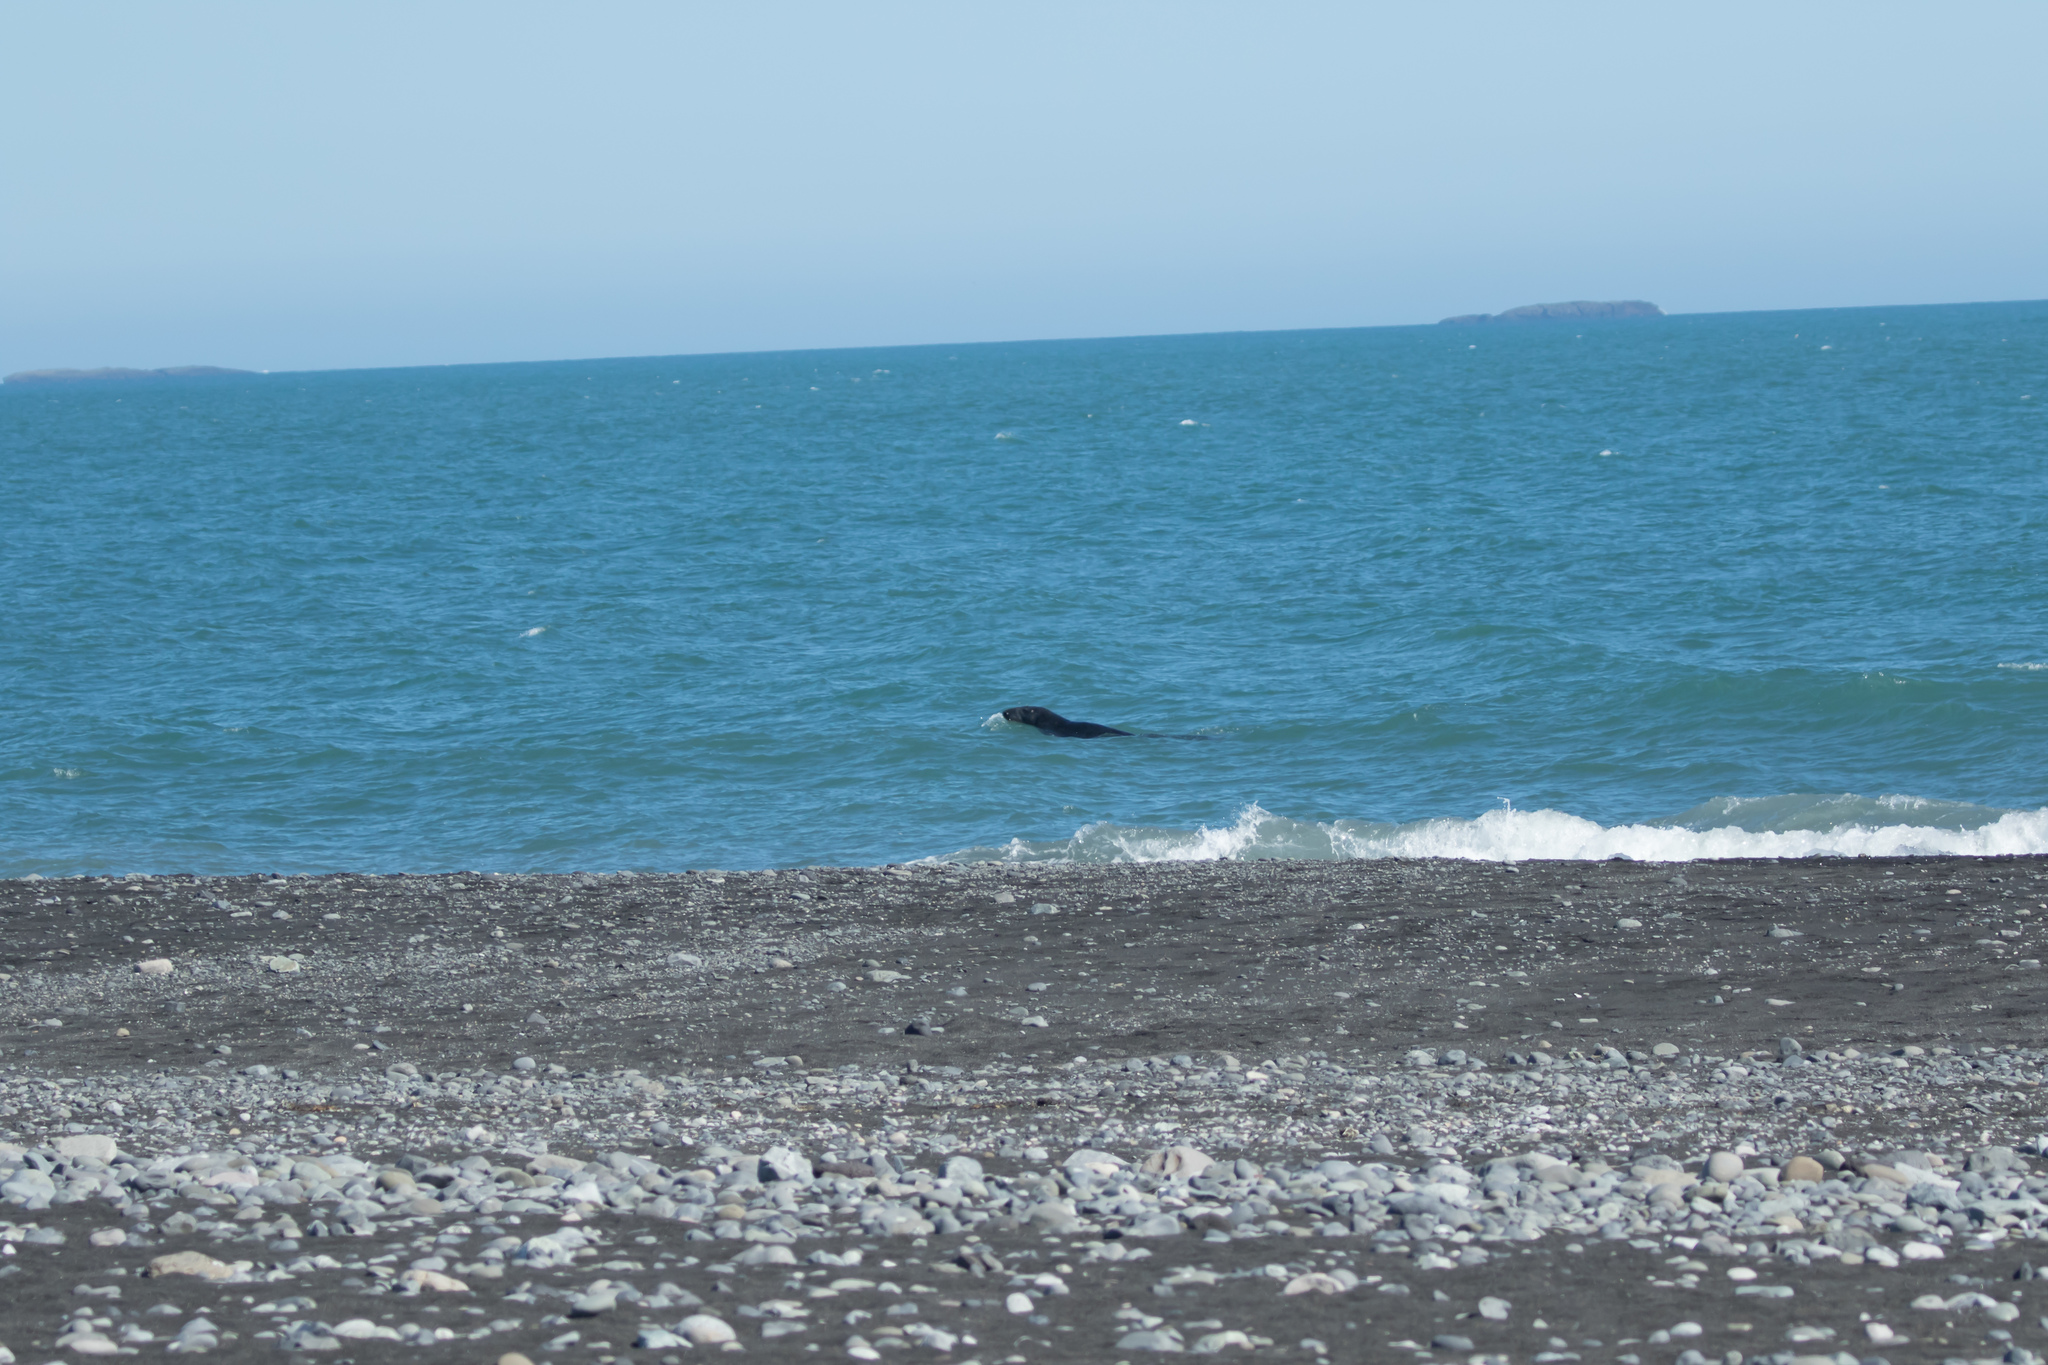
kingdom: Animalia
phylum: Chordata
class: Mammalia
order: Carnivora
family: Phocidae
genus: Halichoerus
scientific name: Halichoerus grypus
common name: Grey seal
